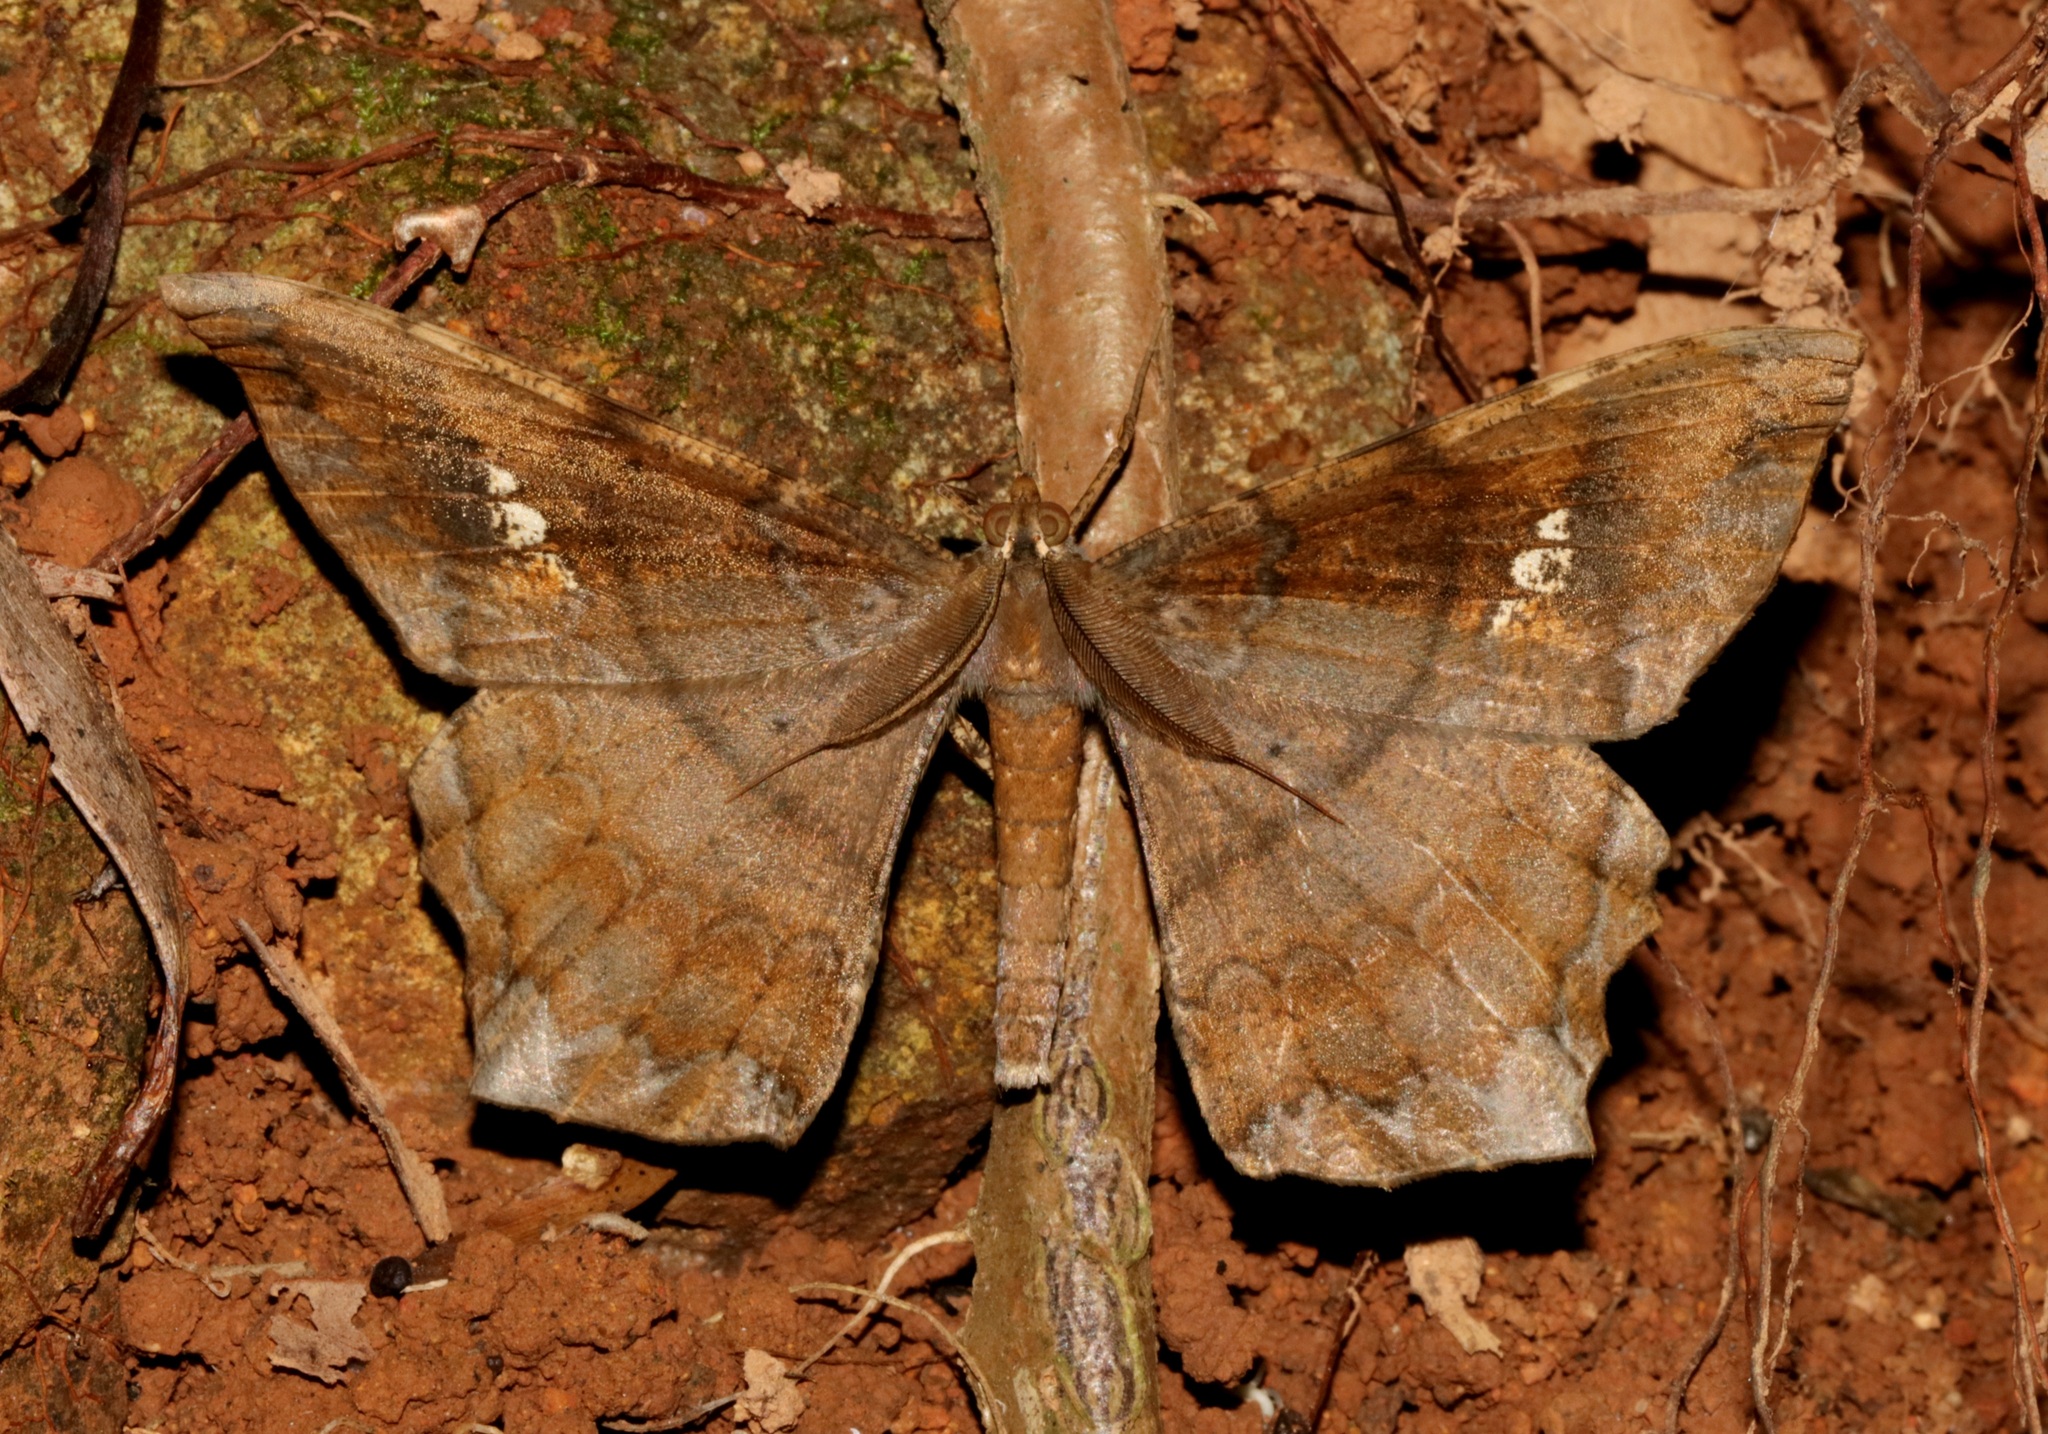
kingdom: Animalia
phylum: Arthropoda
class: Insecta
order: Lepidoptera
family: Geometridae
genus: Amblychia
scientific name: Amblychia angeronaria
